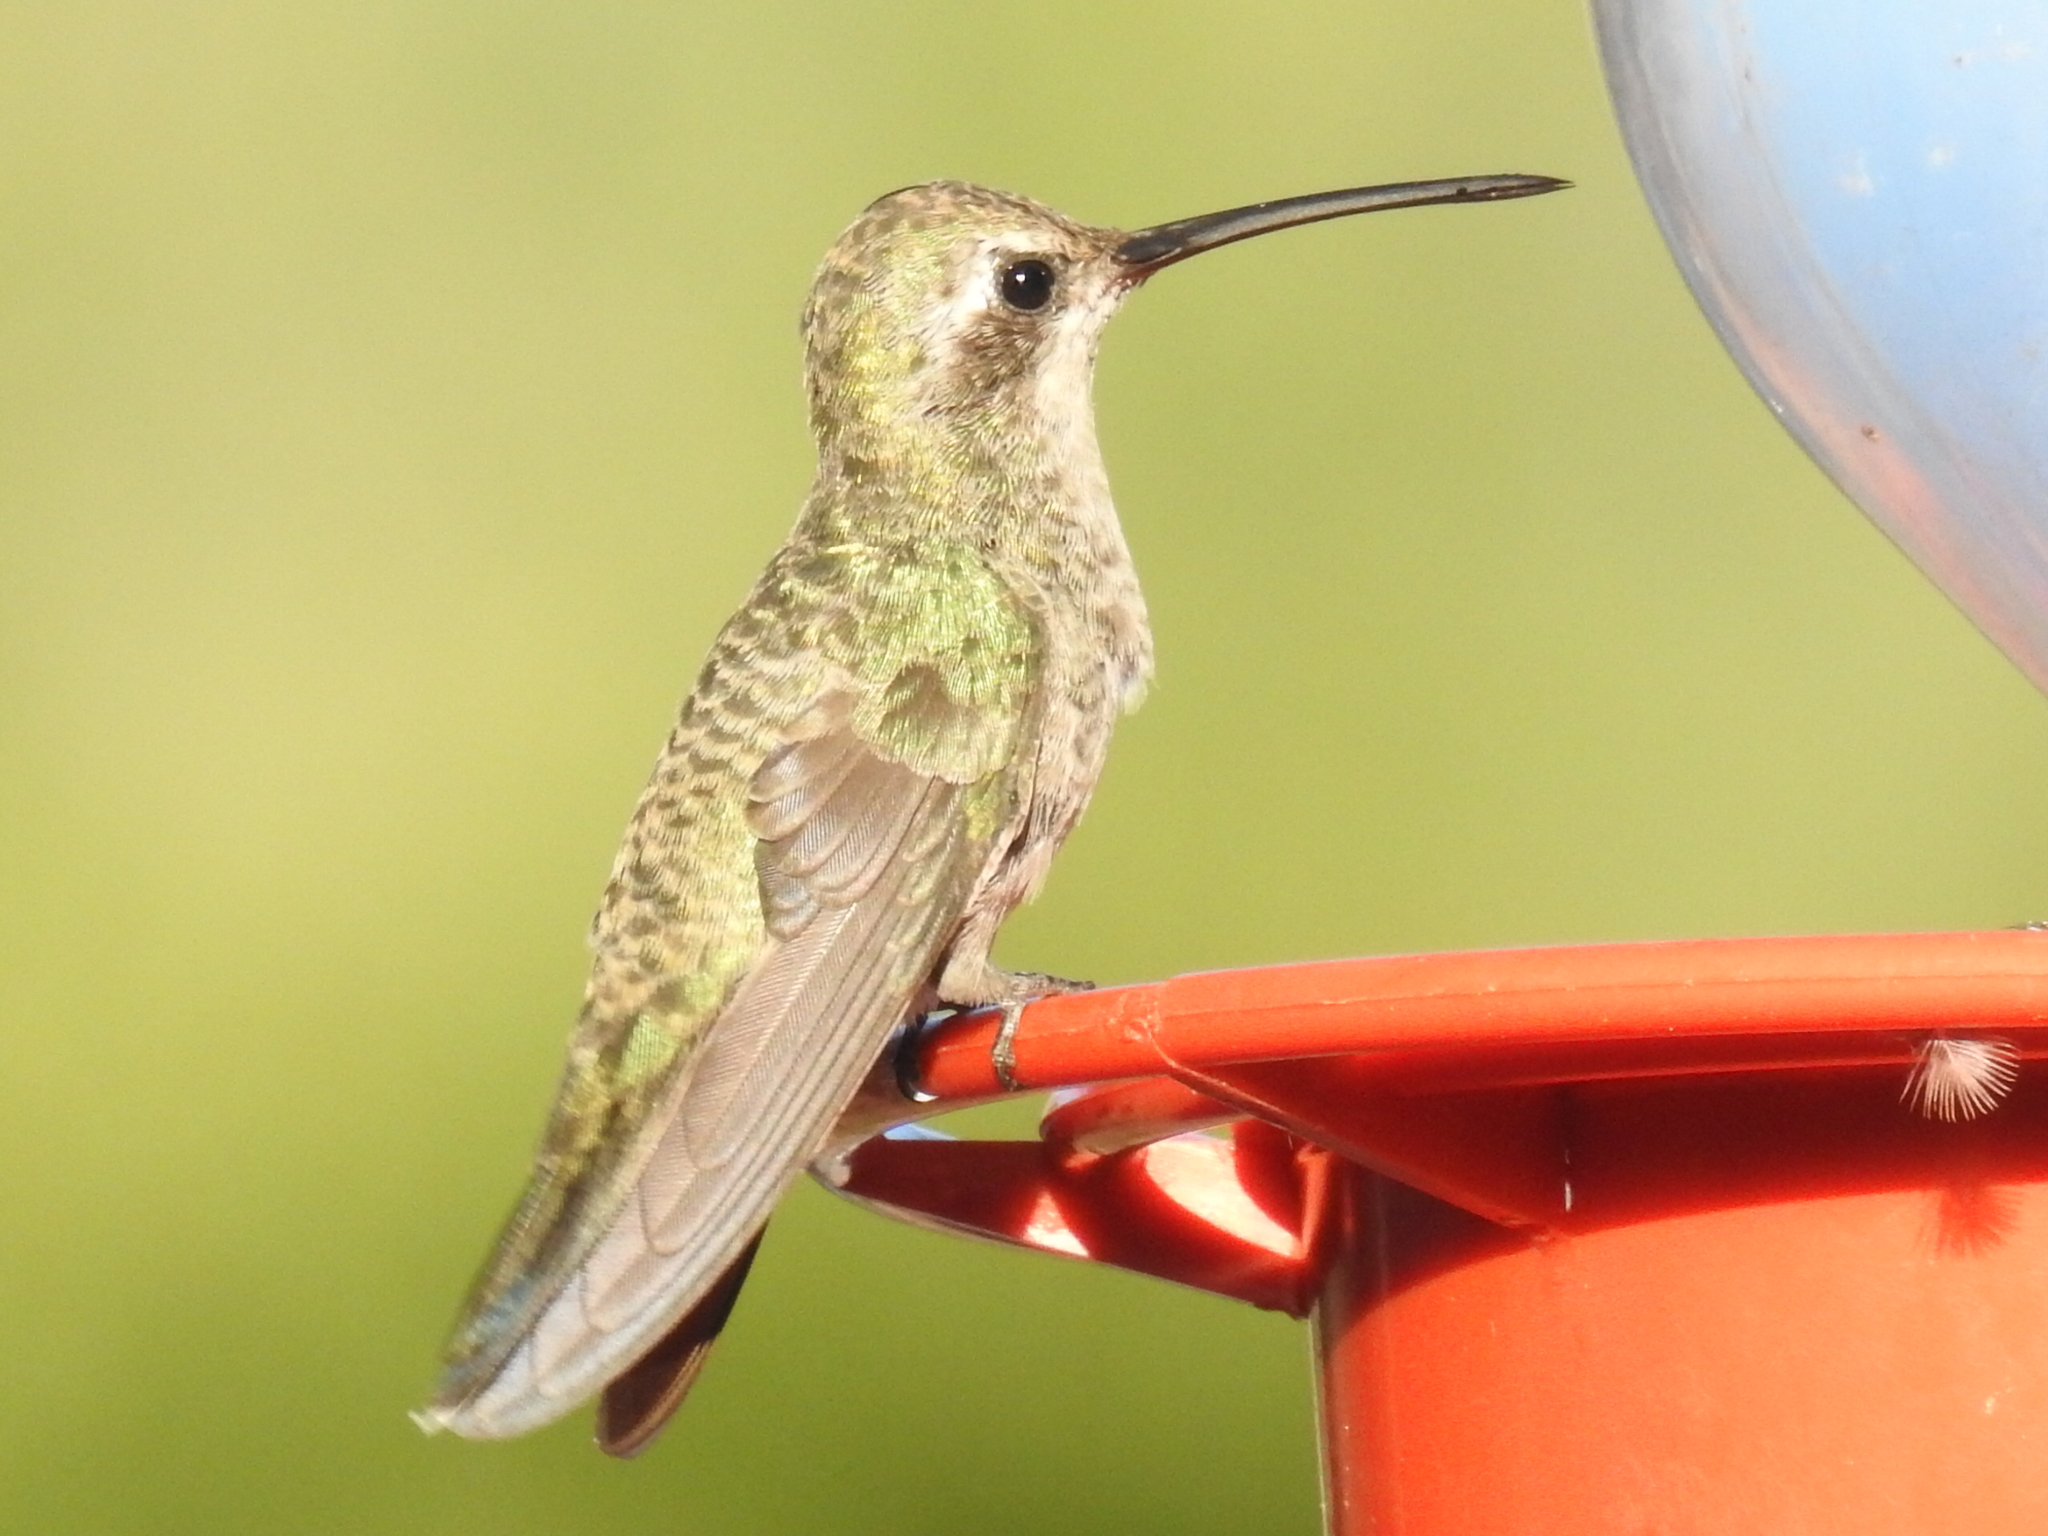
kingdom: Animalia
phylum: Chordata
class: Aves
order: Apodiformes
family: Trochilidae
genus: Cynanthus
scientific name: Cynanthus latirostris
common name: Broad-billed hummingbird
